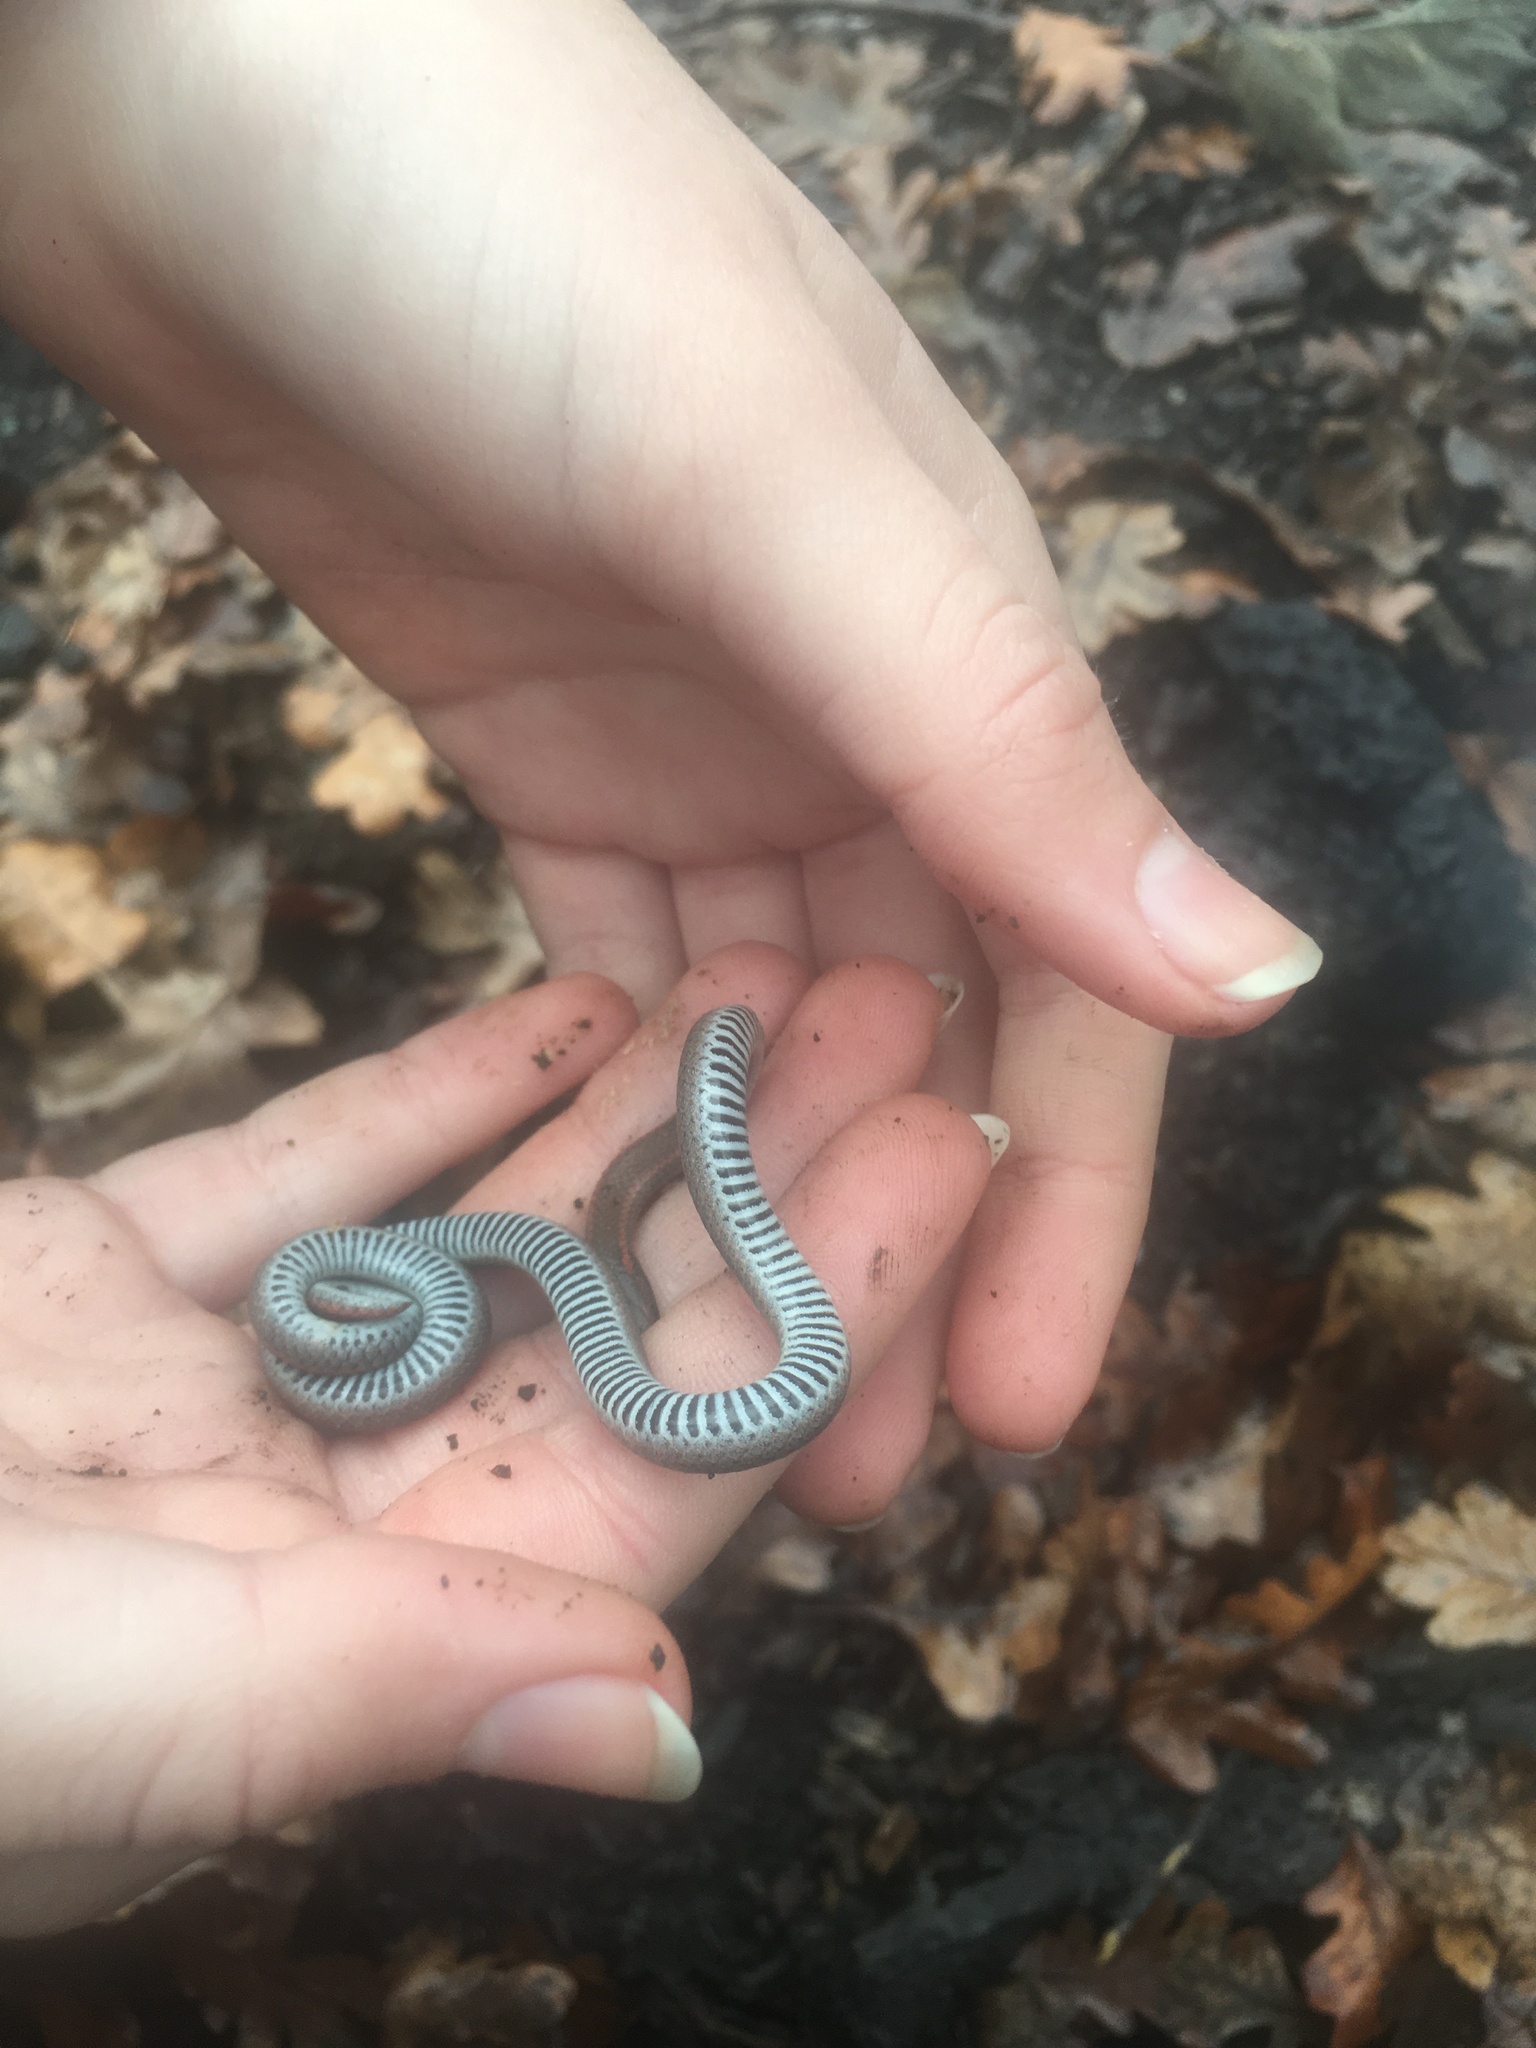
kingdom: Animalia
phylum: Chordata
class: Squamata
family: Colubridae
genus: Contia
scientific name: Contia tenuis
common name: Sharptail snake
